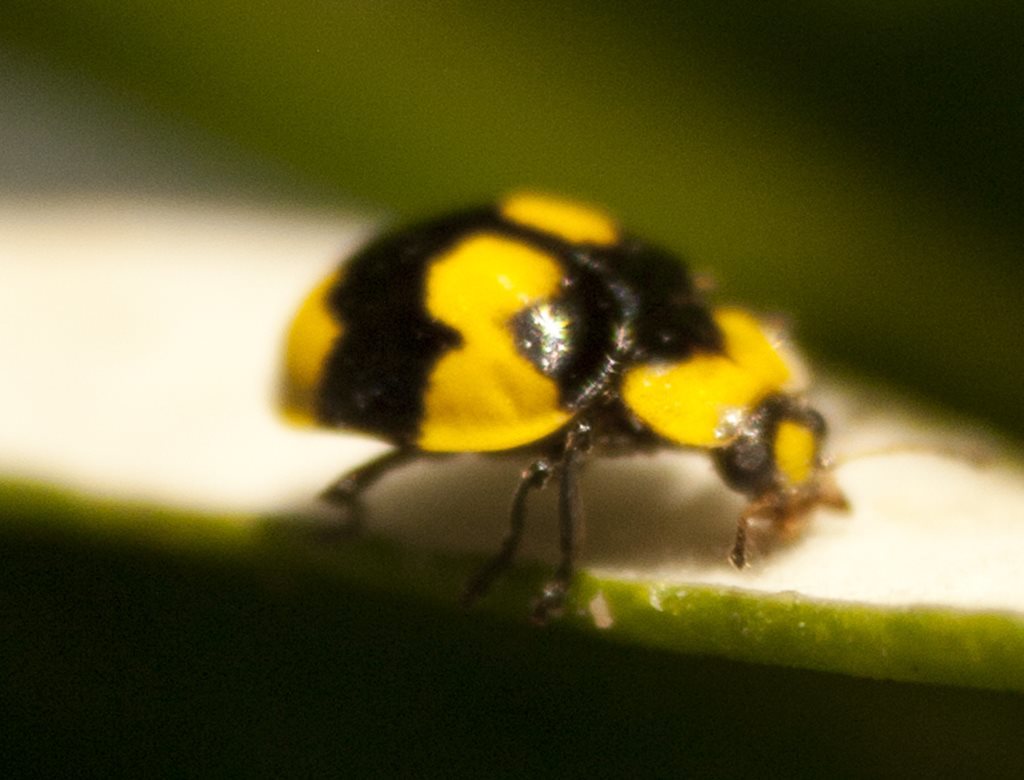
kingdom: Animalia
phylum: Arthropoda
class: Insecta
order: Coleoptera
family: Coccinellidae
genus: Illeis
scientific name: Illeis galbula
